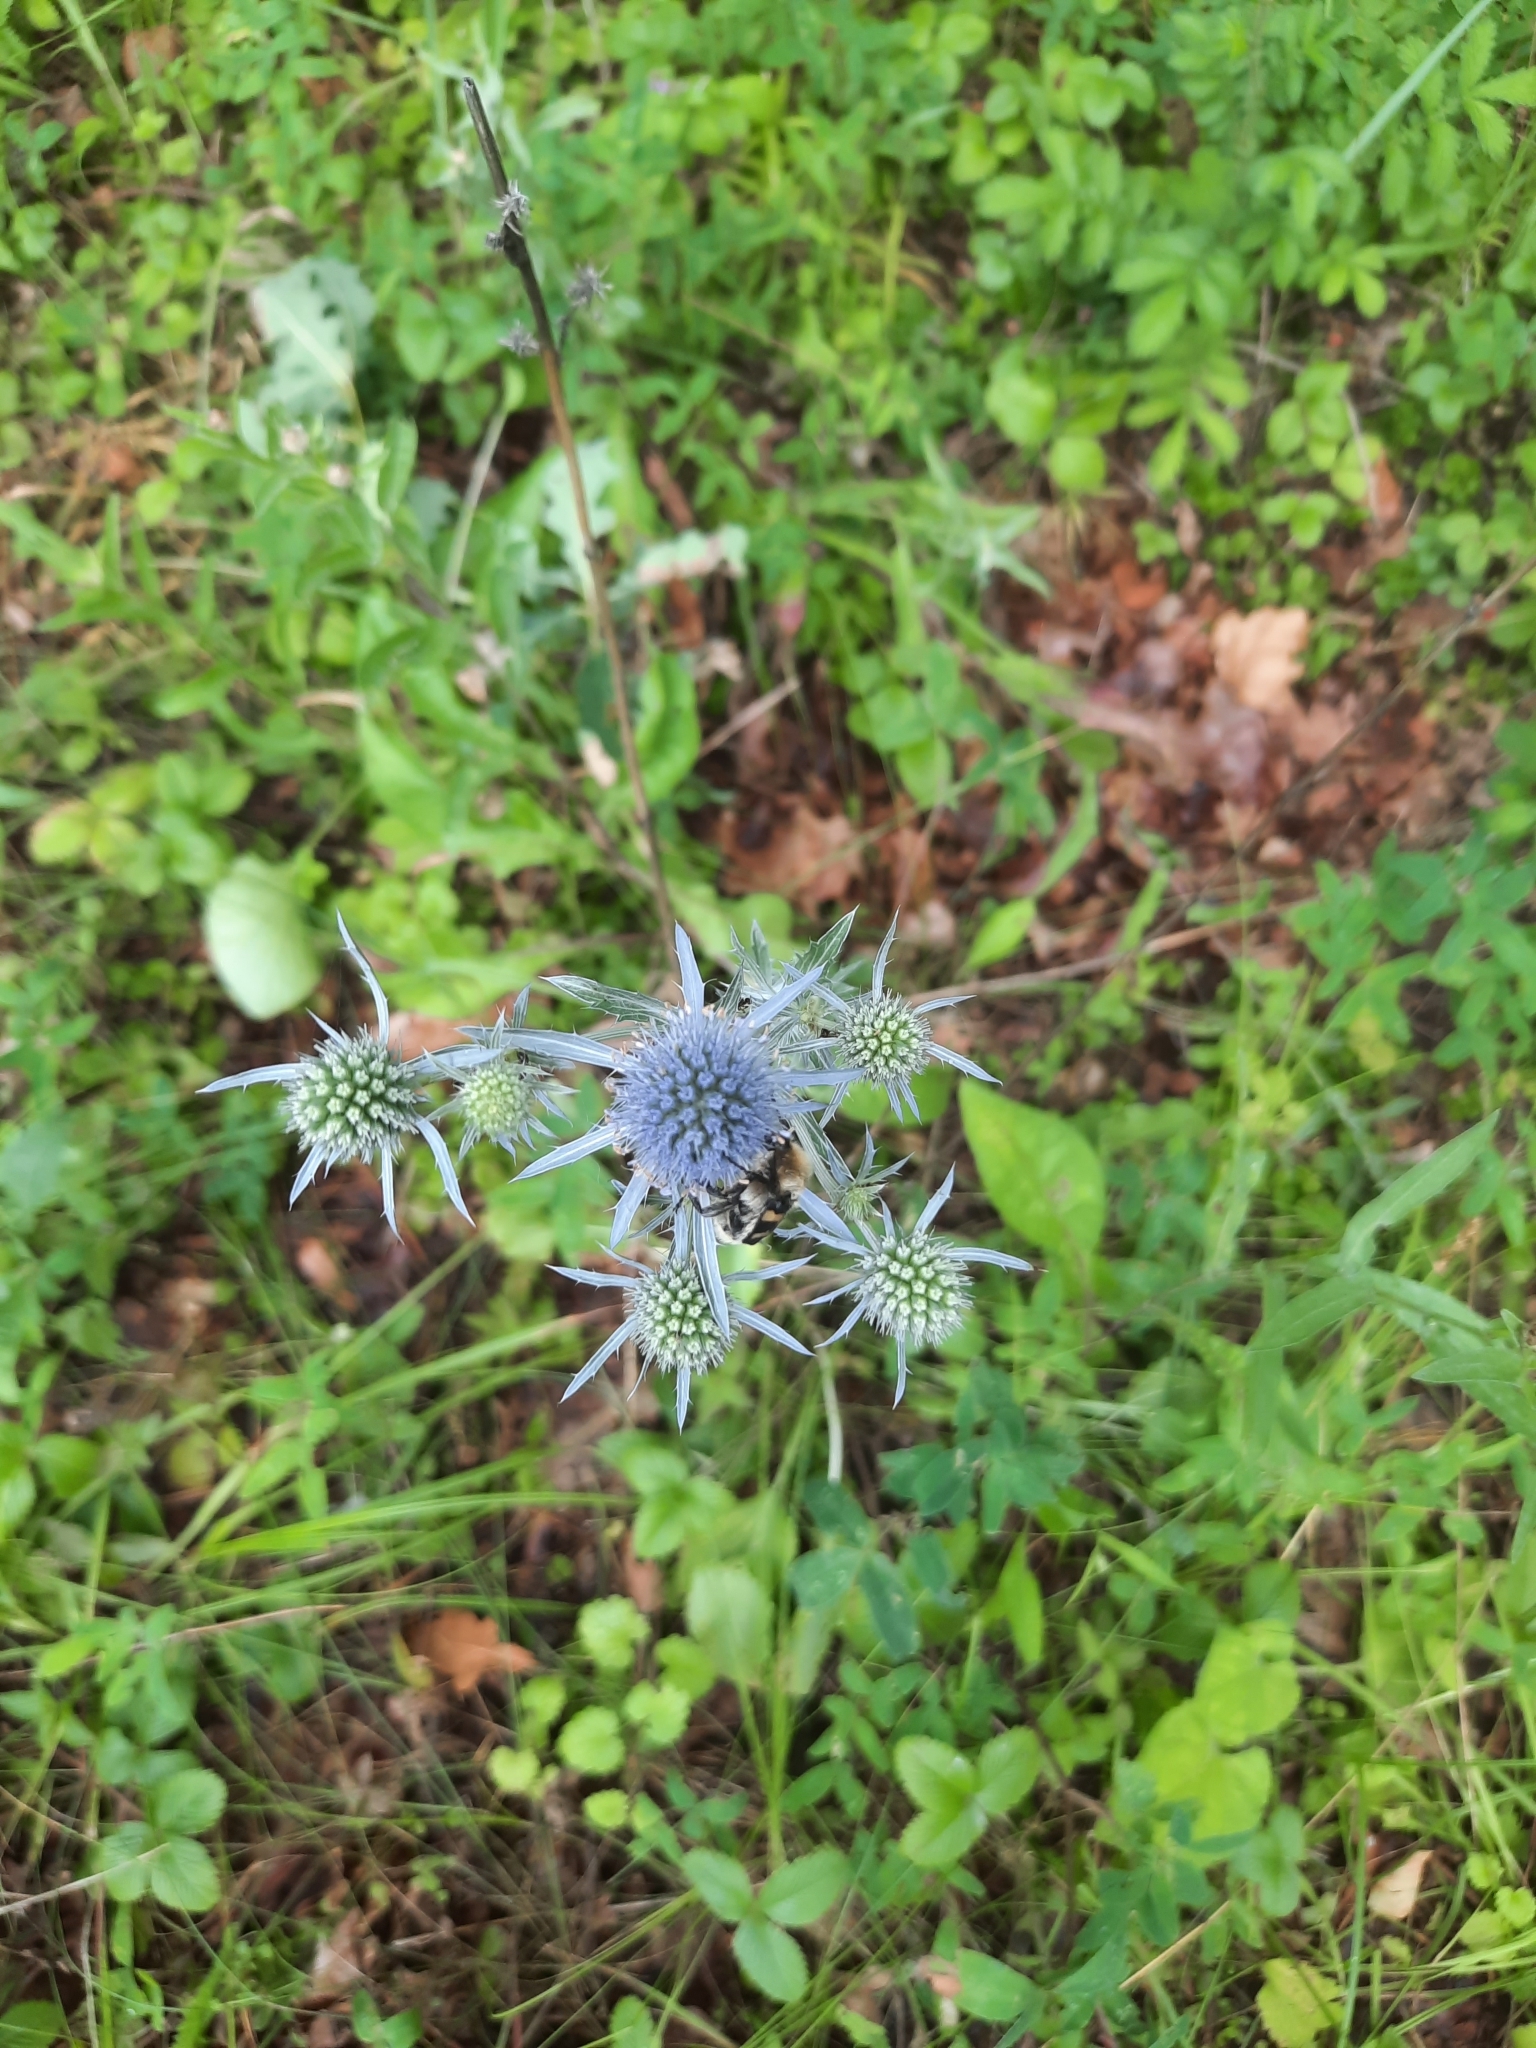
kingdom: Plantae
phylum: Tracheophyta
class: Magnoliopsida
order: Apiales
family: Apiaceae
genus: Eryngium
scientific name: Eryngium planum
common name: Blue eryngo
